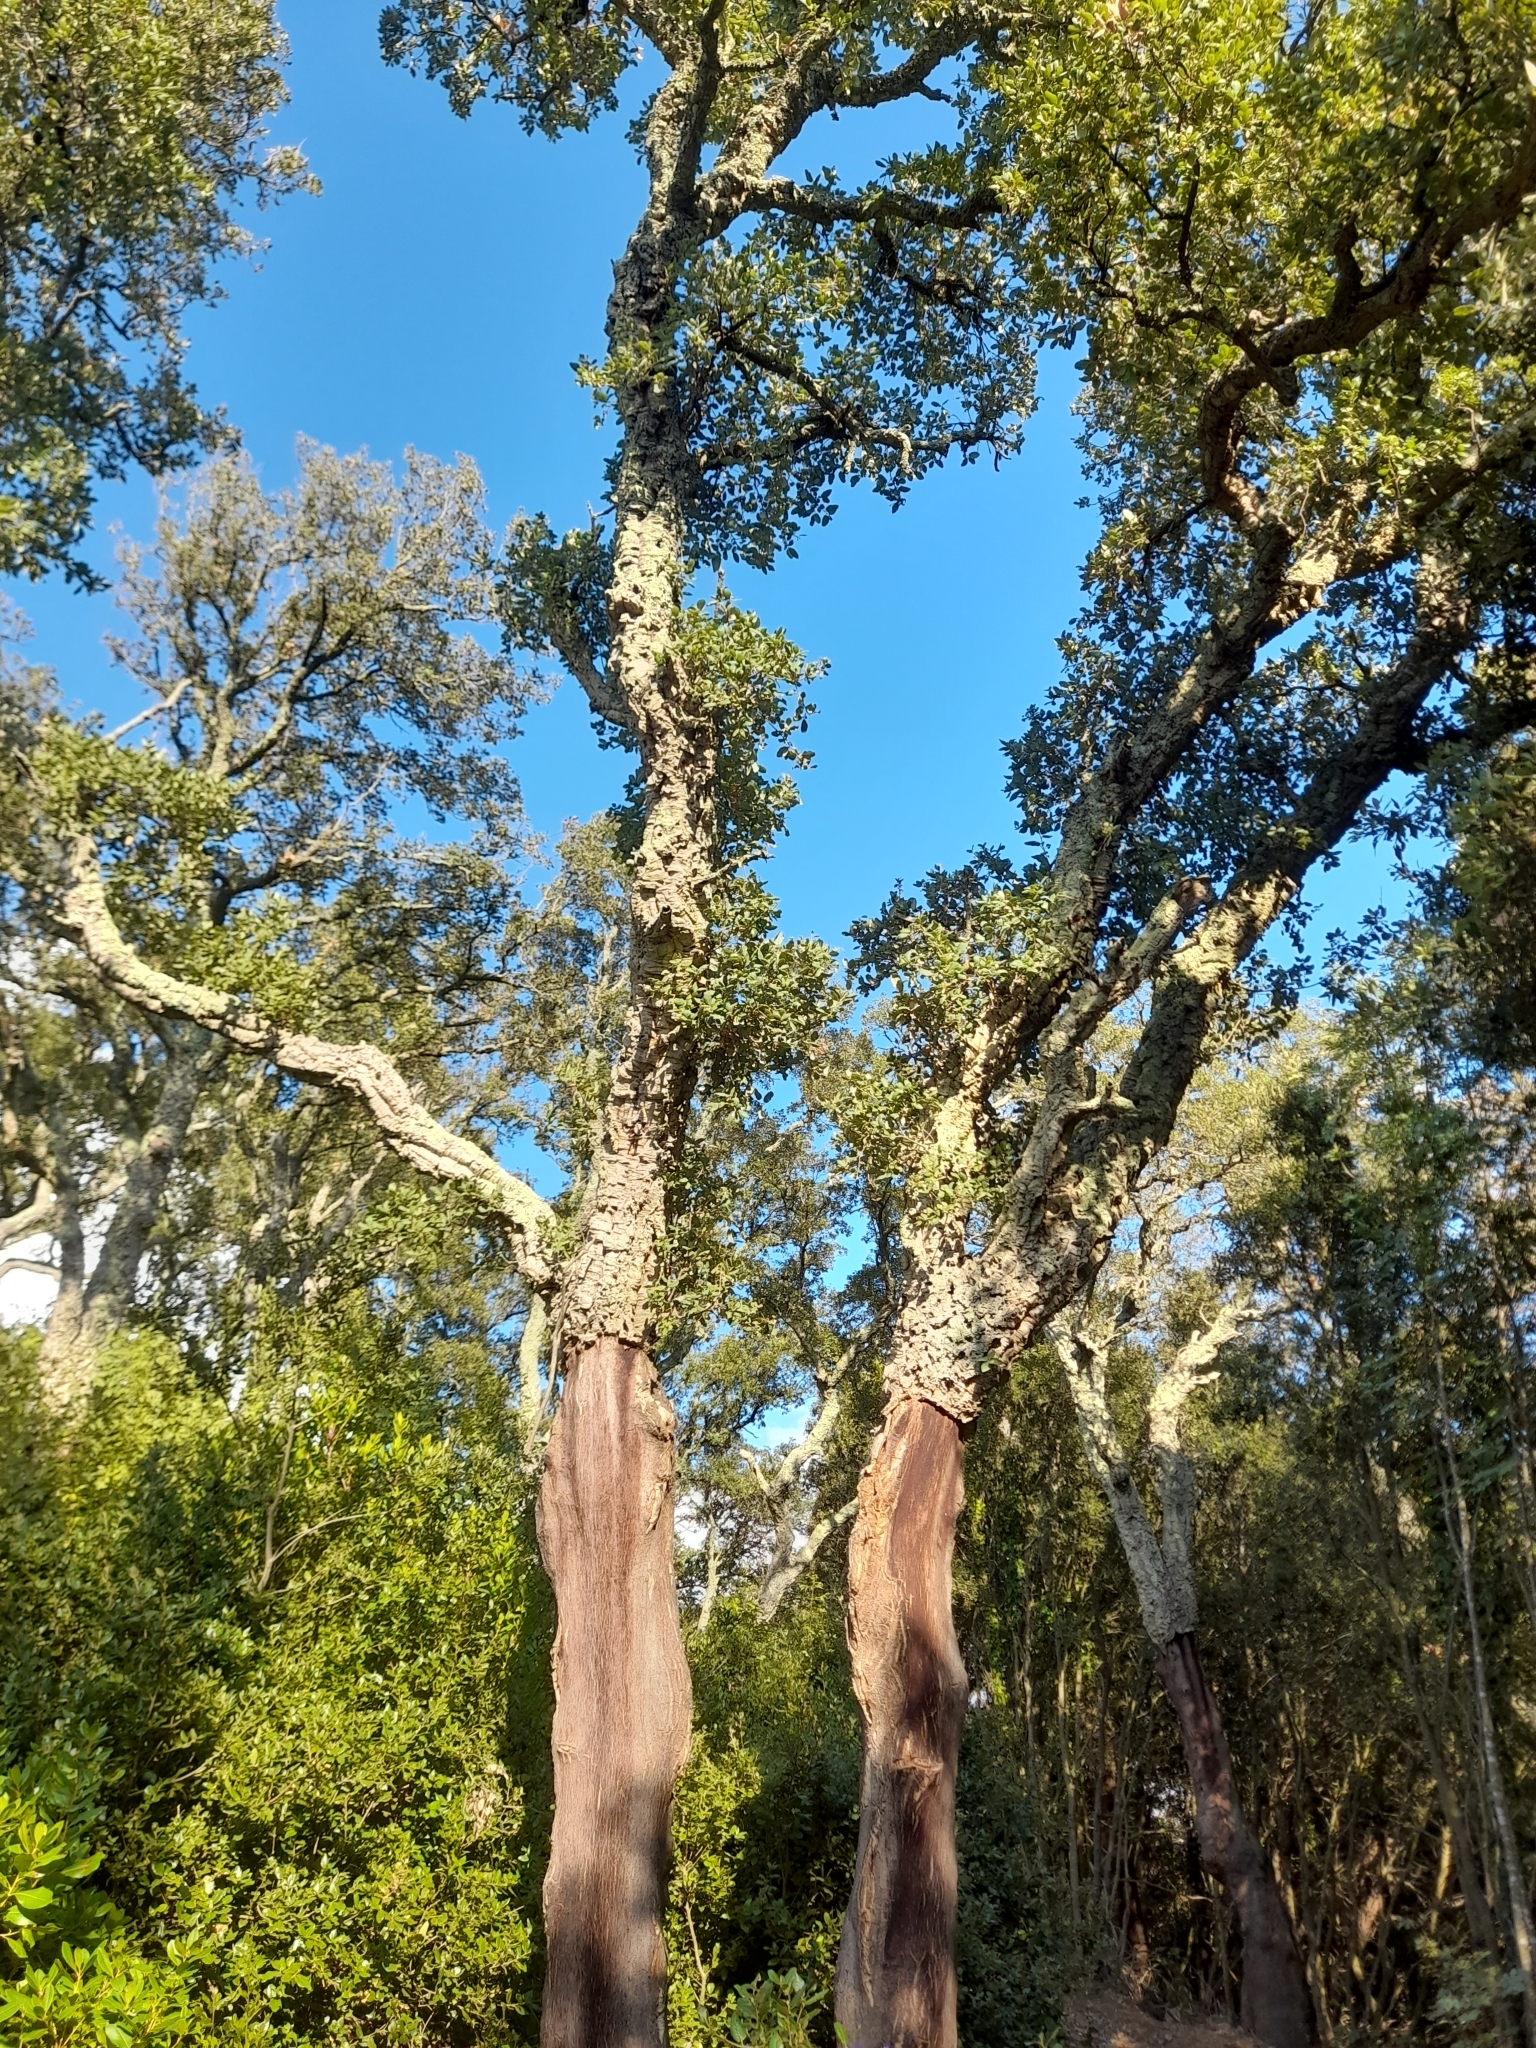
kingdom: Plantae
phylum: Tracheophyta
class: Magnoliopsida
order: Fagales
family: Fagaceae
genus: Quercus
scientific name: Quercus suber
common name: Cork oak
